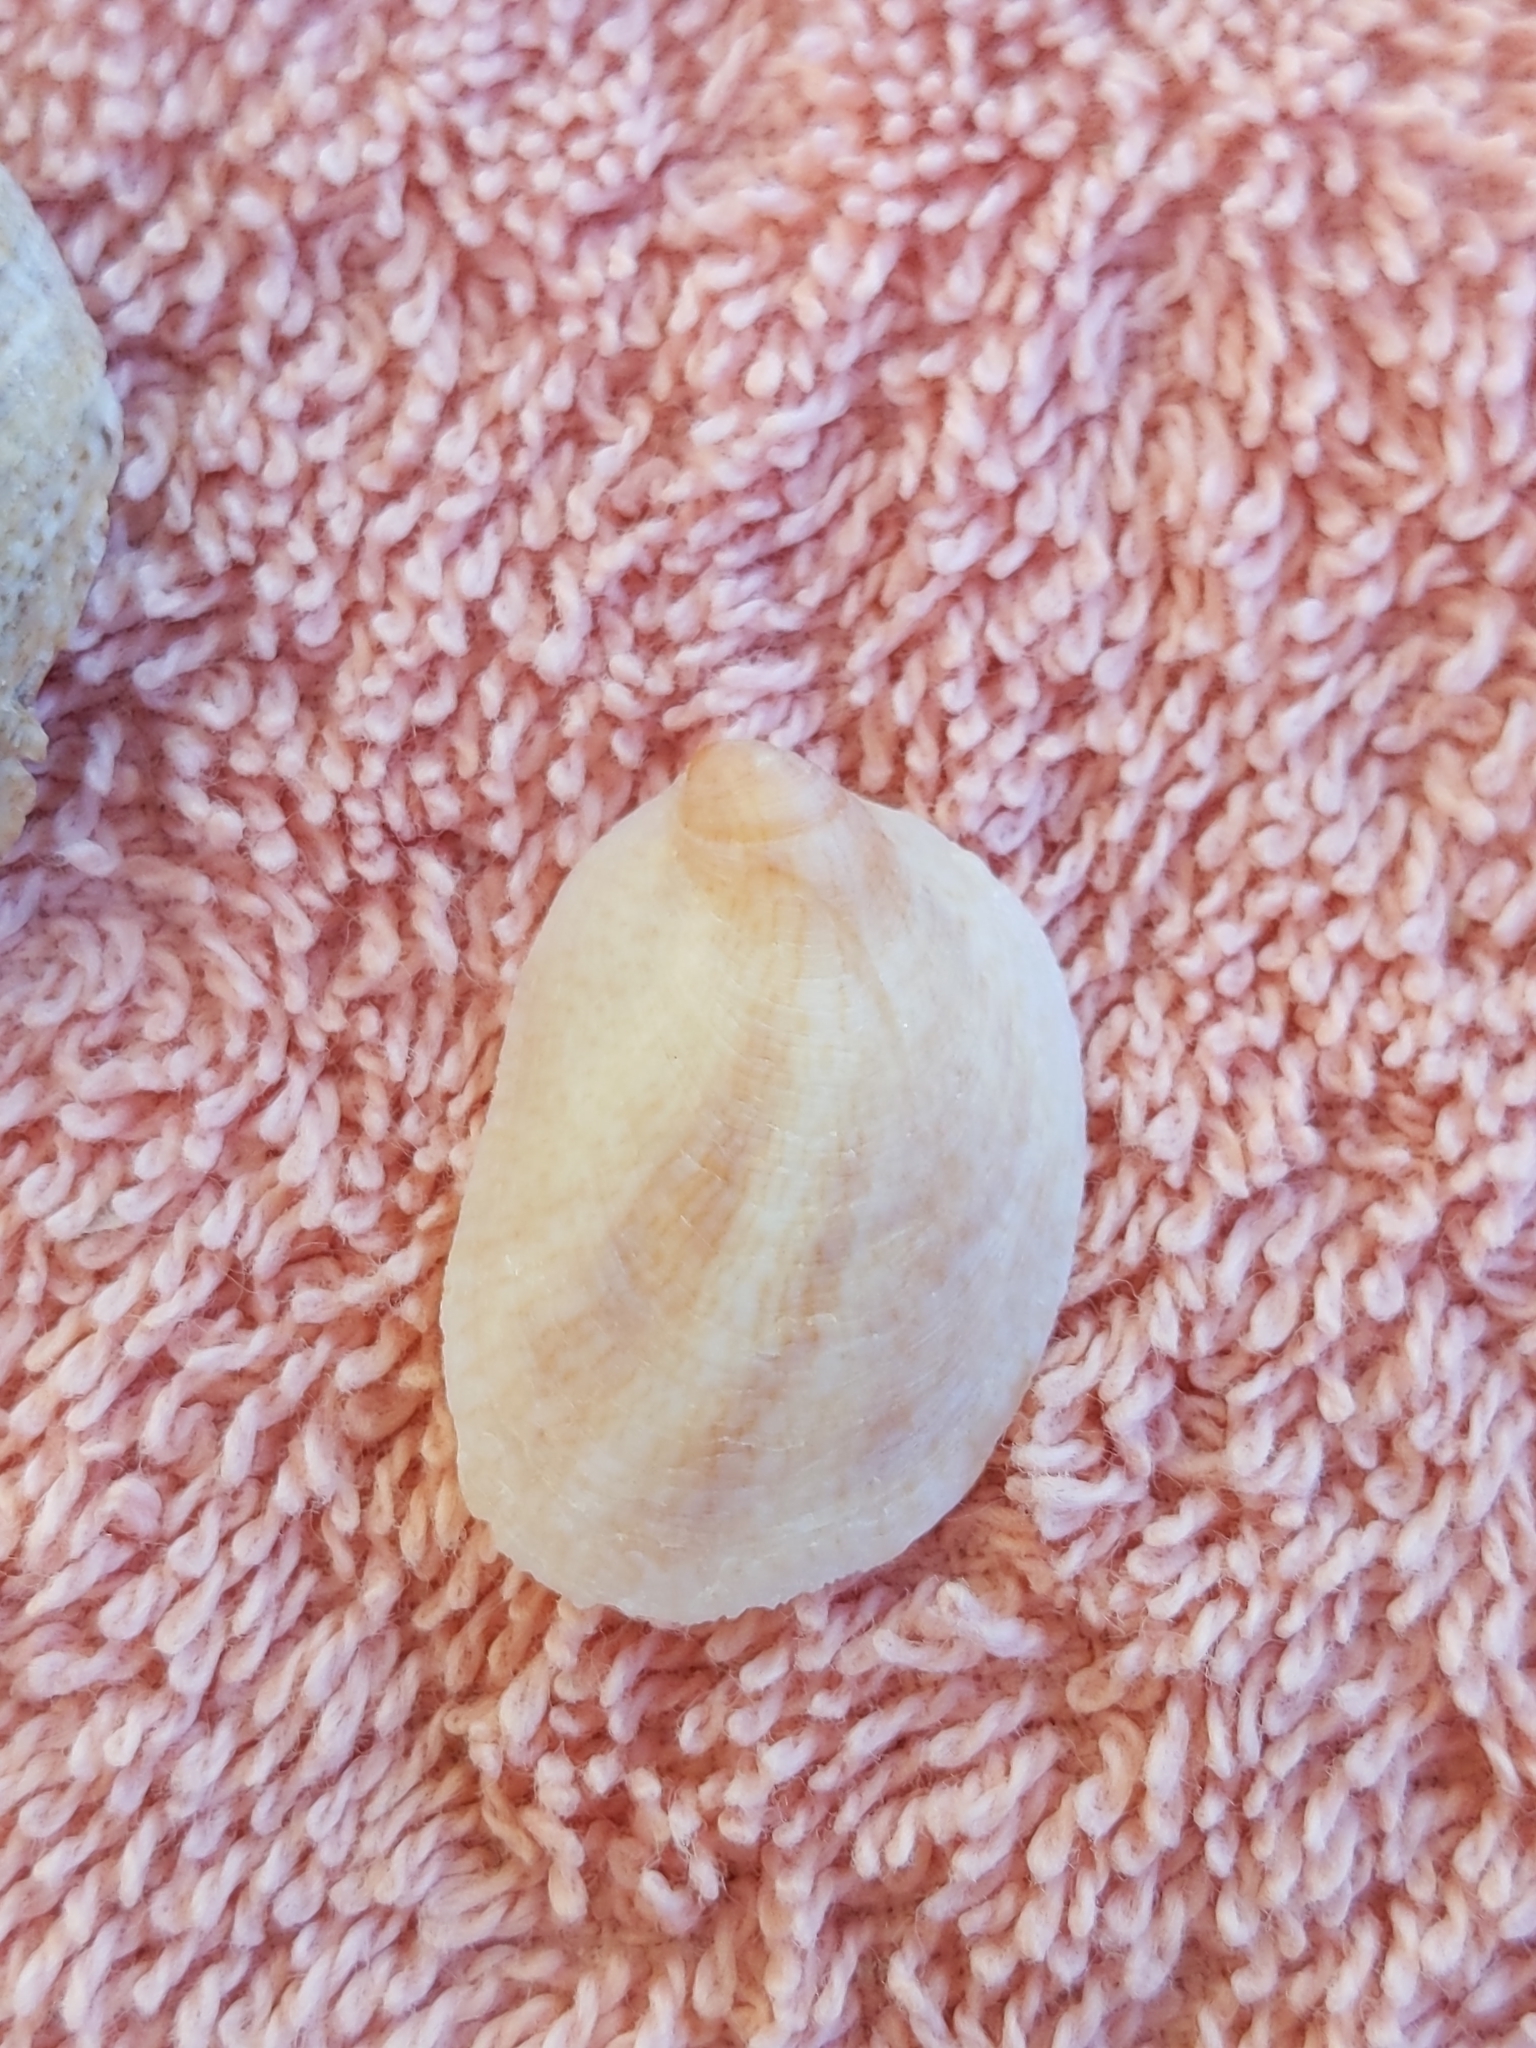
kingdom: Animalia
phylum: Mollusca
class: Gastropoda
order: Littorinimorpha
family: Calyptraeidae
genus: Crepidula
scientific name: Crepidula fornicata
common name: Slipper limpet
